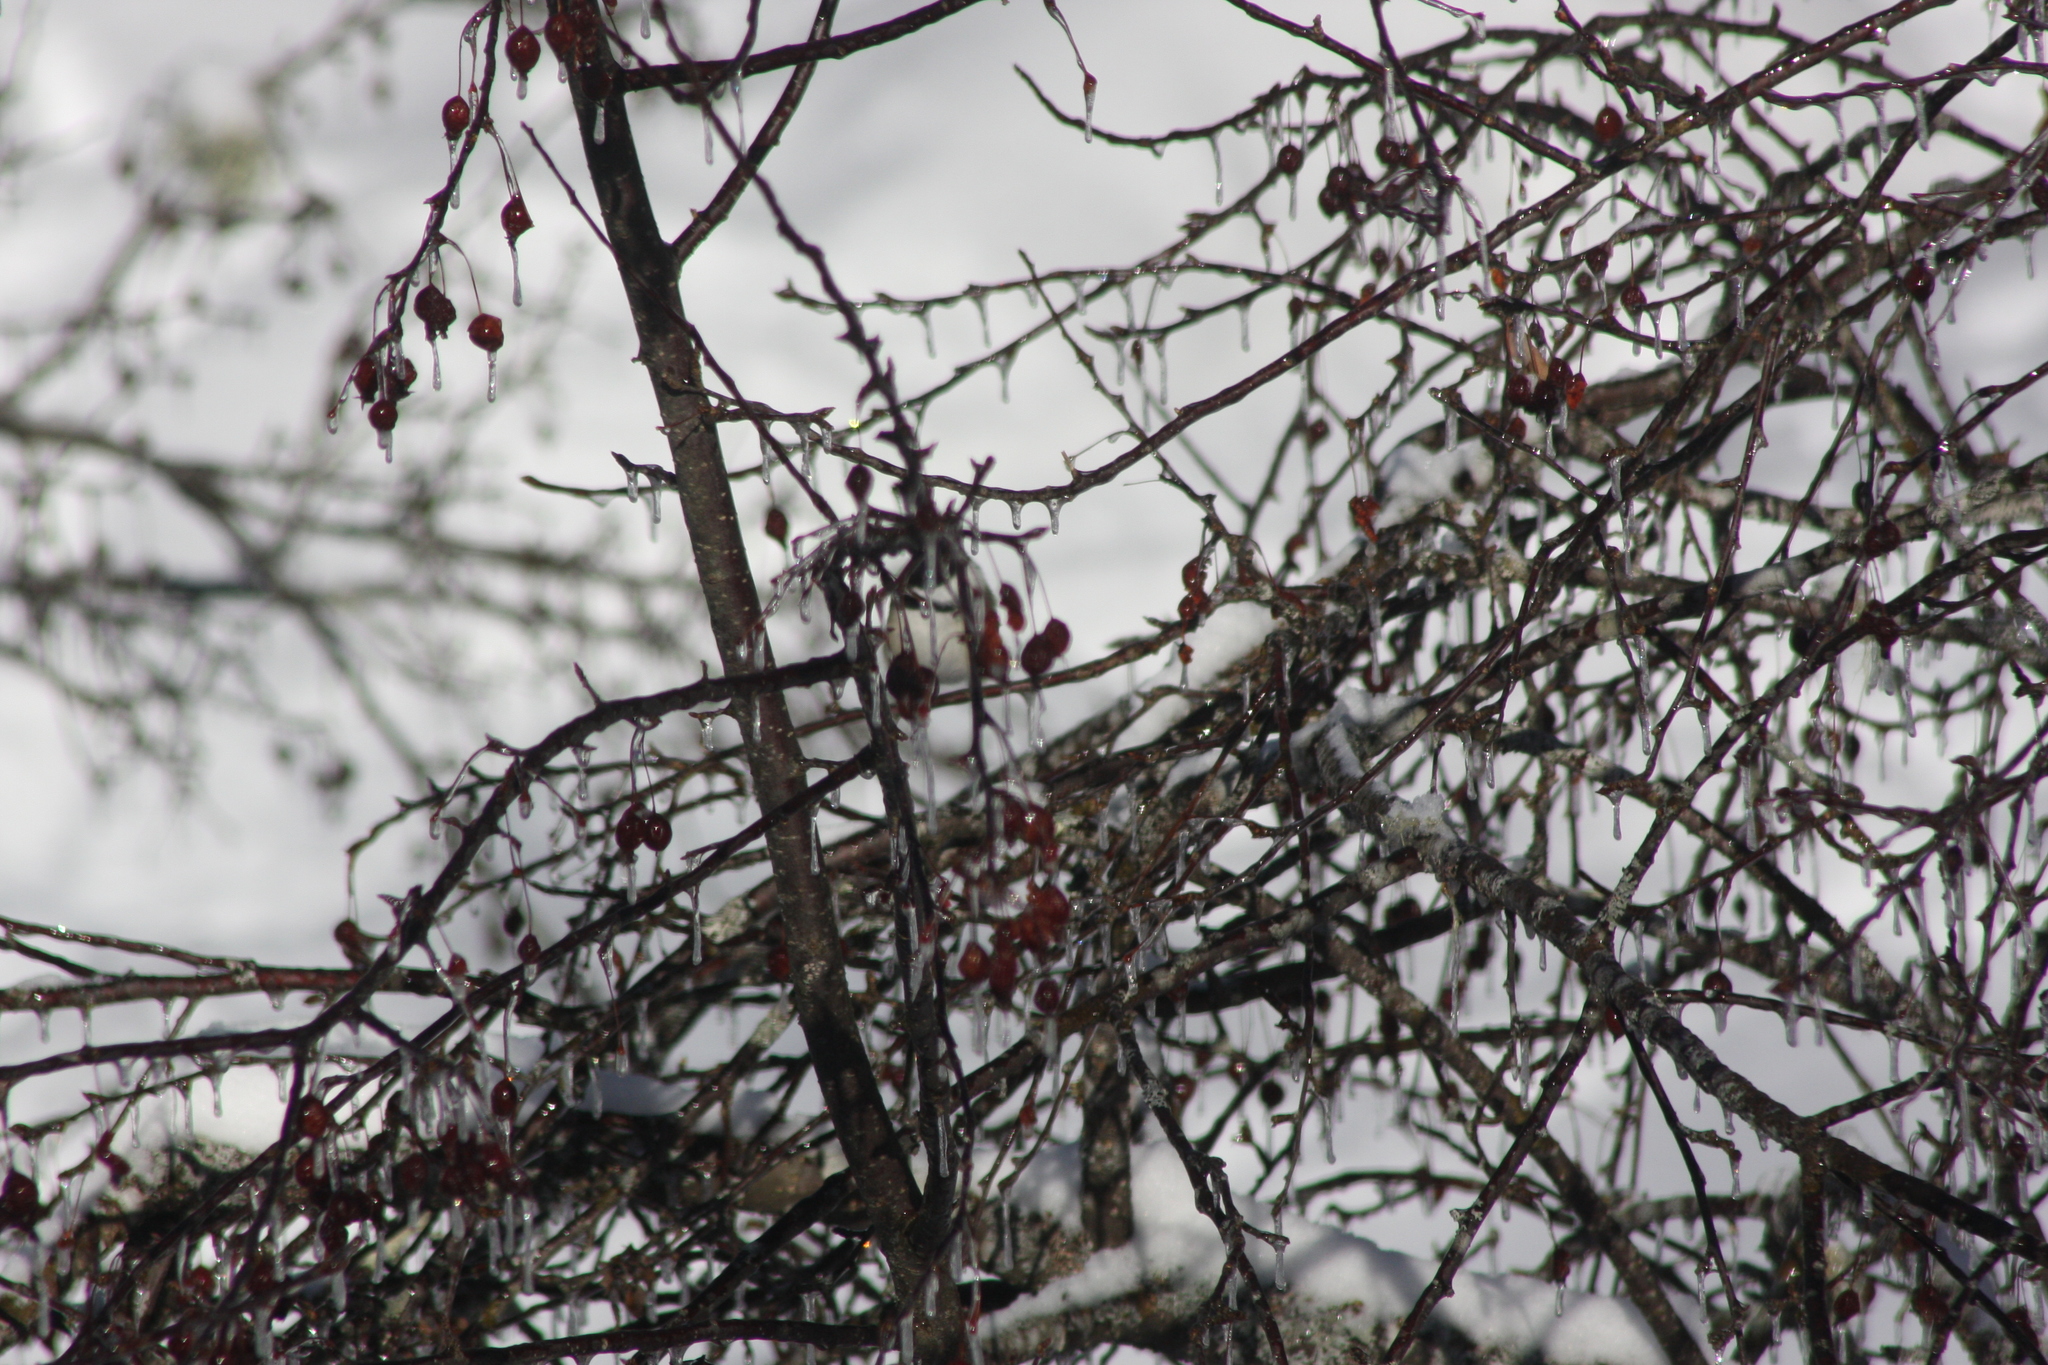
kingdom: Animalia
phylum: Chordata
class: Aves
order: Passeriformes
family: Paridae
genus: Poecile
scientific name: Poecile atricapillus
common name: Black-capped chickadee
